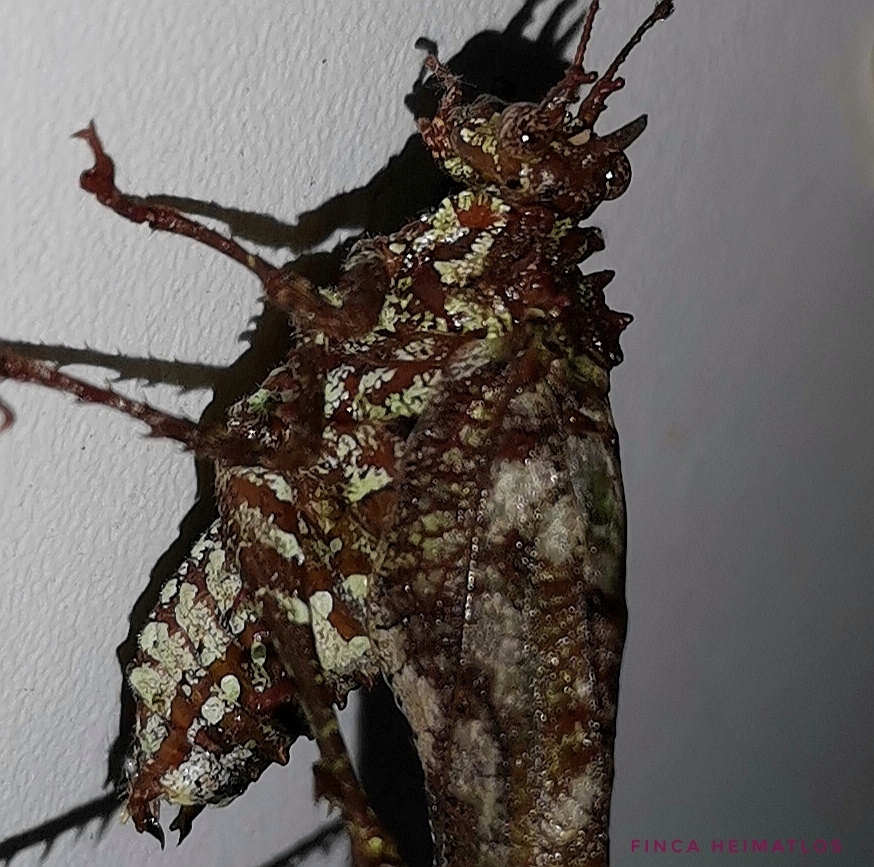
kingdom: Animalia
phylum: Arthropoda
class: Insecta
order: Orthoptera
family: Tettigoniidae
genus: Anaphidna
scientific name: Anaphidna rubricorpus
